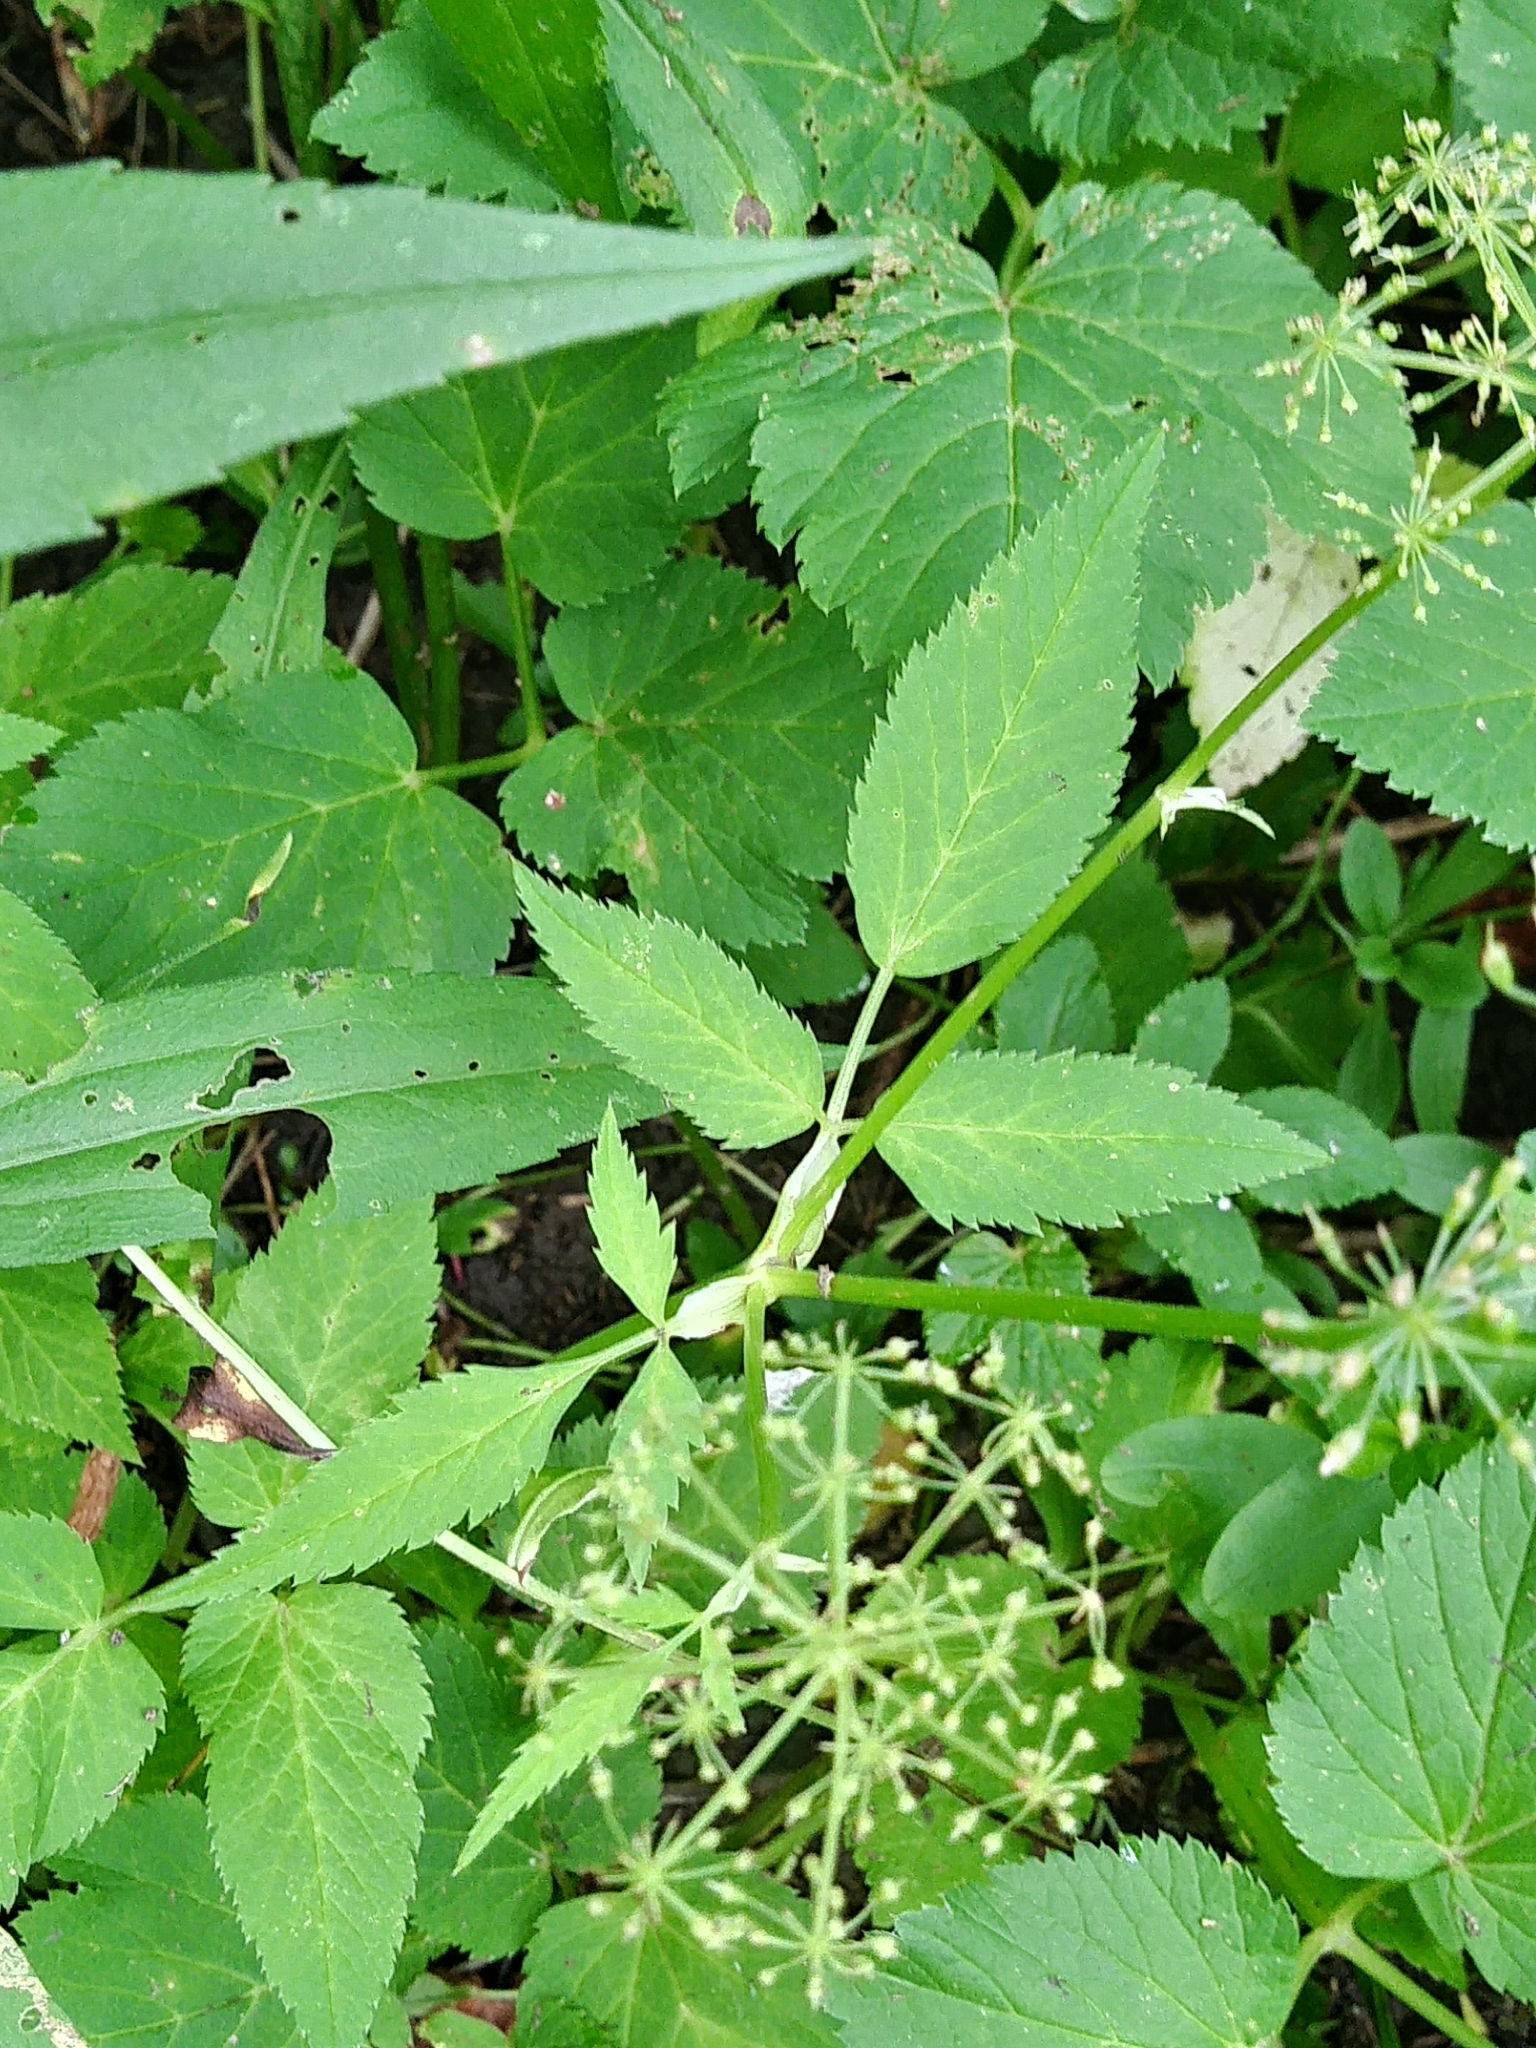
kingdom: Plantae
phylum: Tracheophyta
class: Magnoliopsida
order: Apiales
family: Apiaceae
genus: Aegopodium
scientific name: Aegopodium podagraria
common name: Ground-elder
